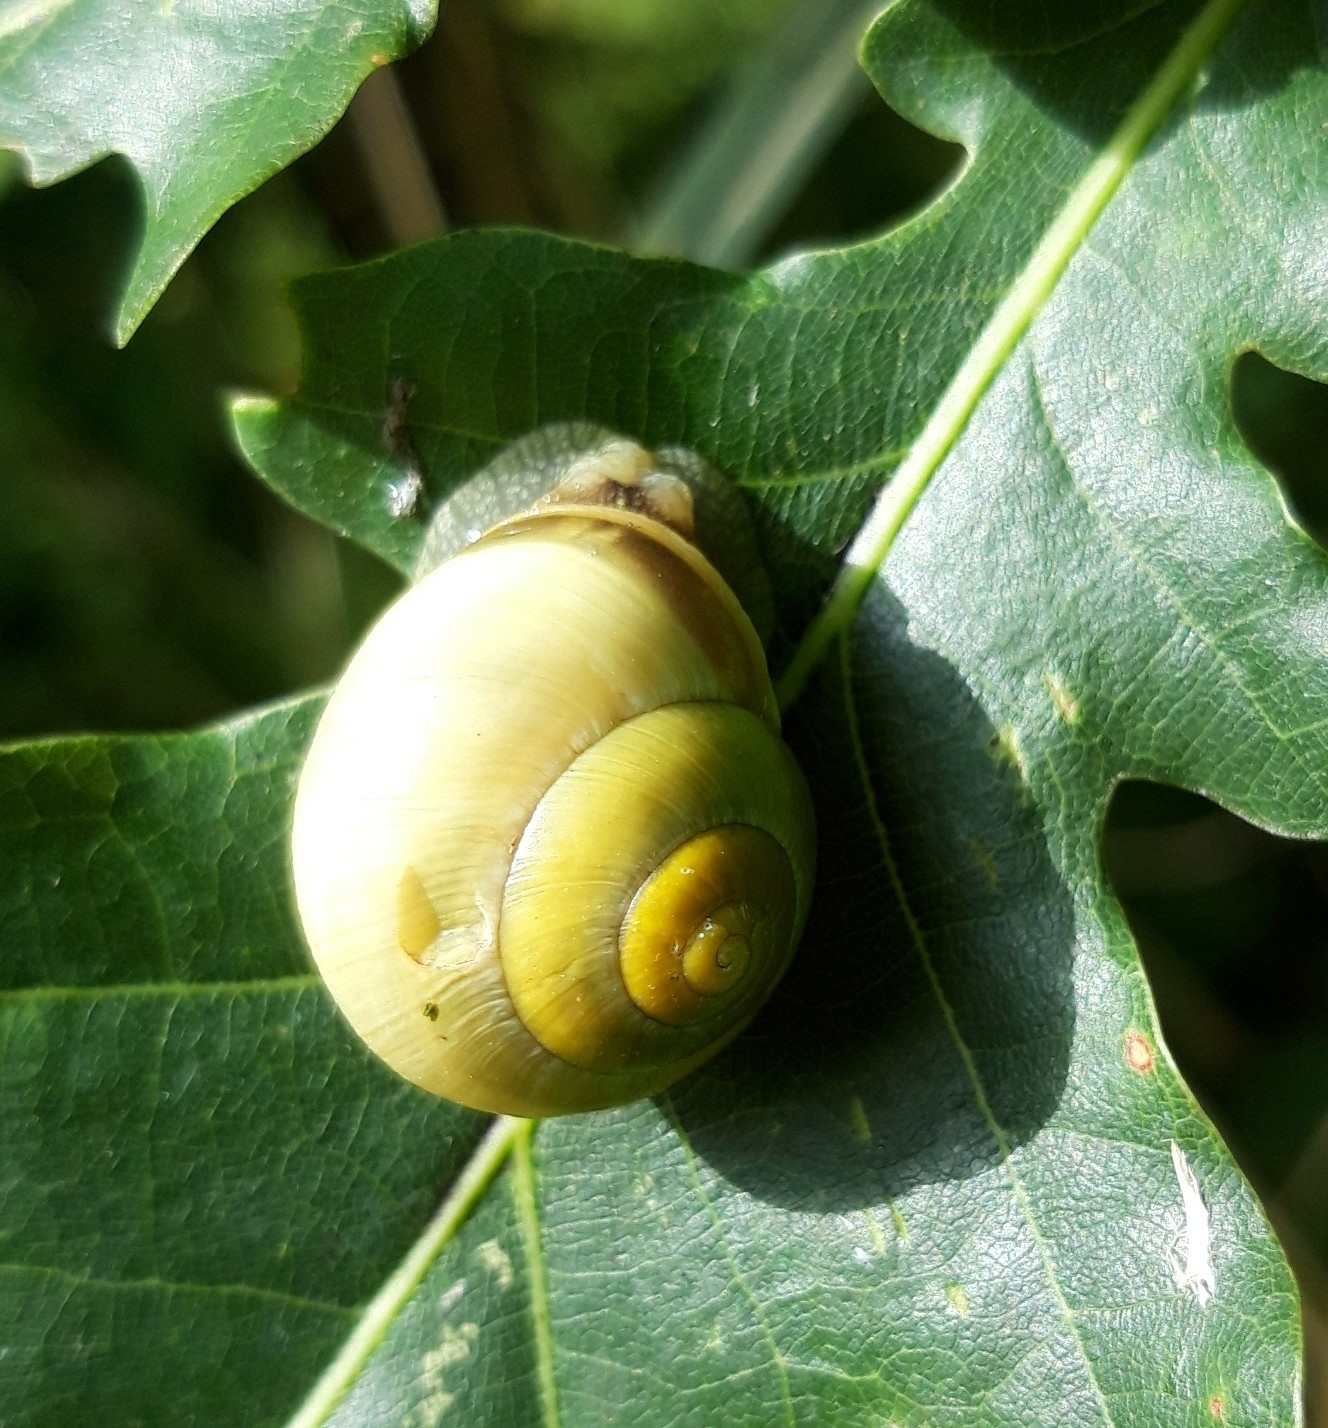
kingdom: Animalia
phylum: Mollusca
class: Gastropoda
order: Stylommatophora
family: Helicidae
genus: Cepaea
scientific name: Cepaea
